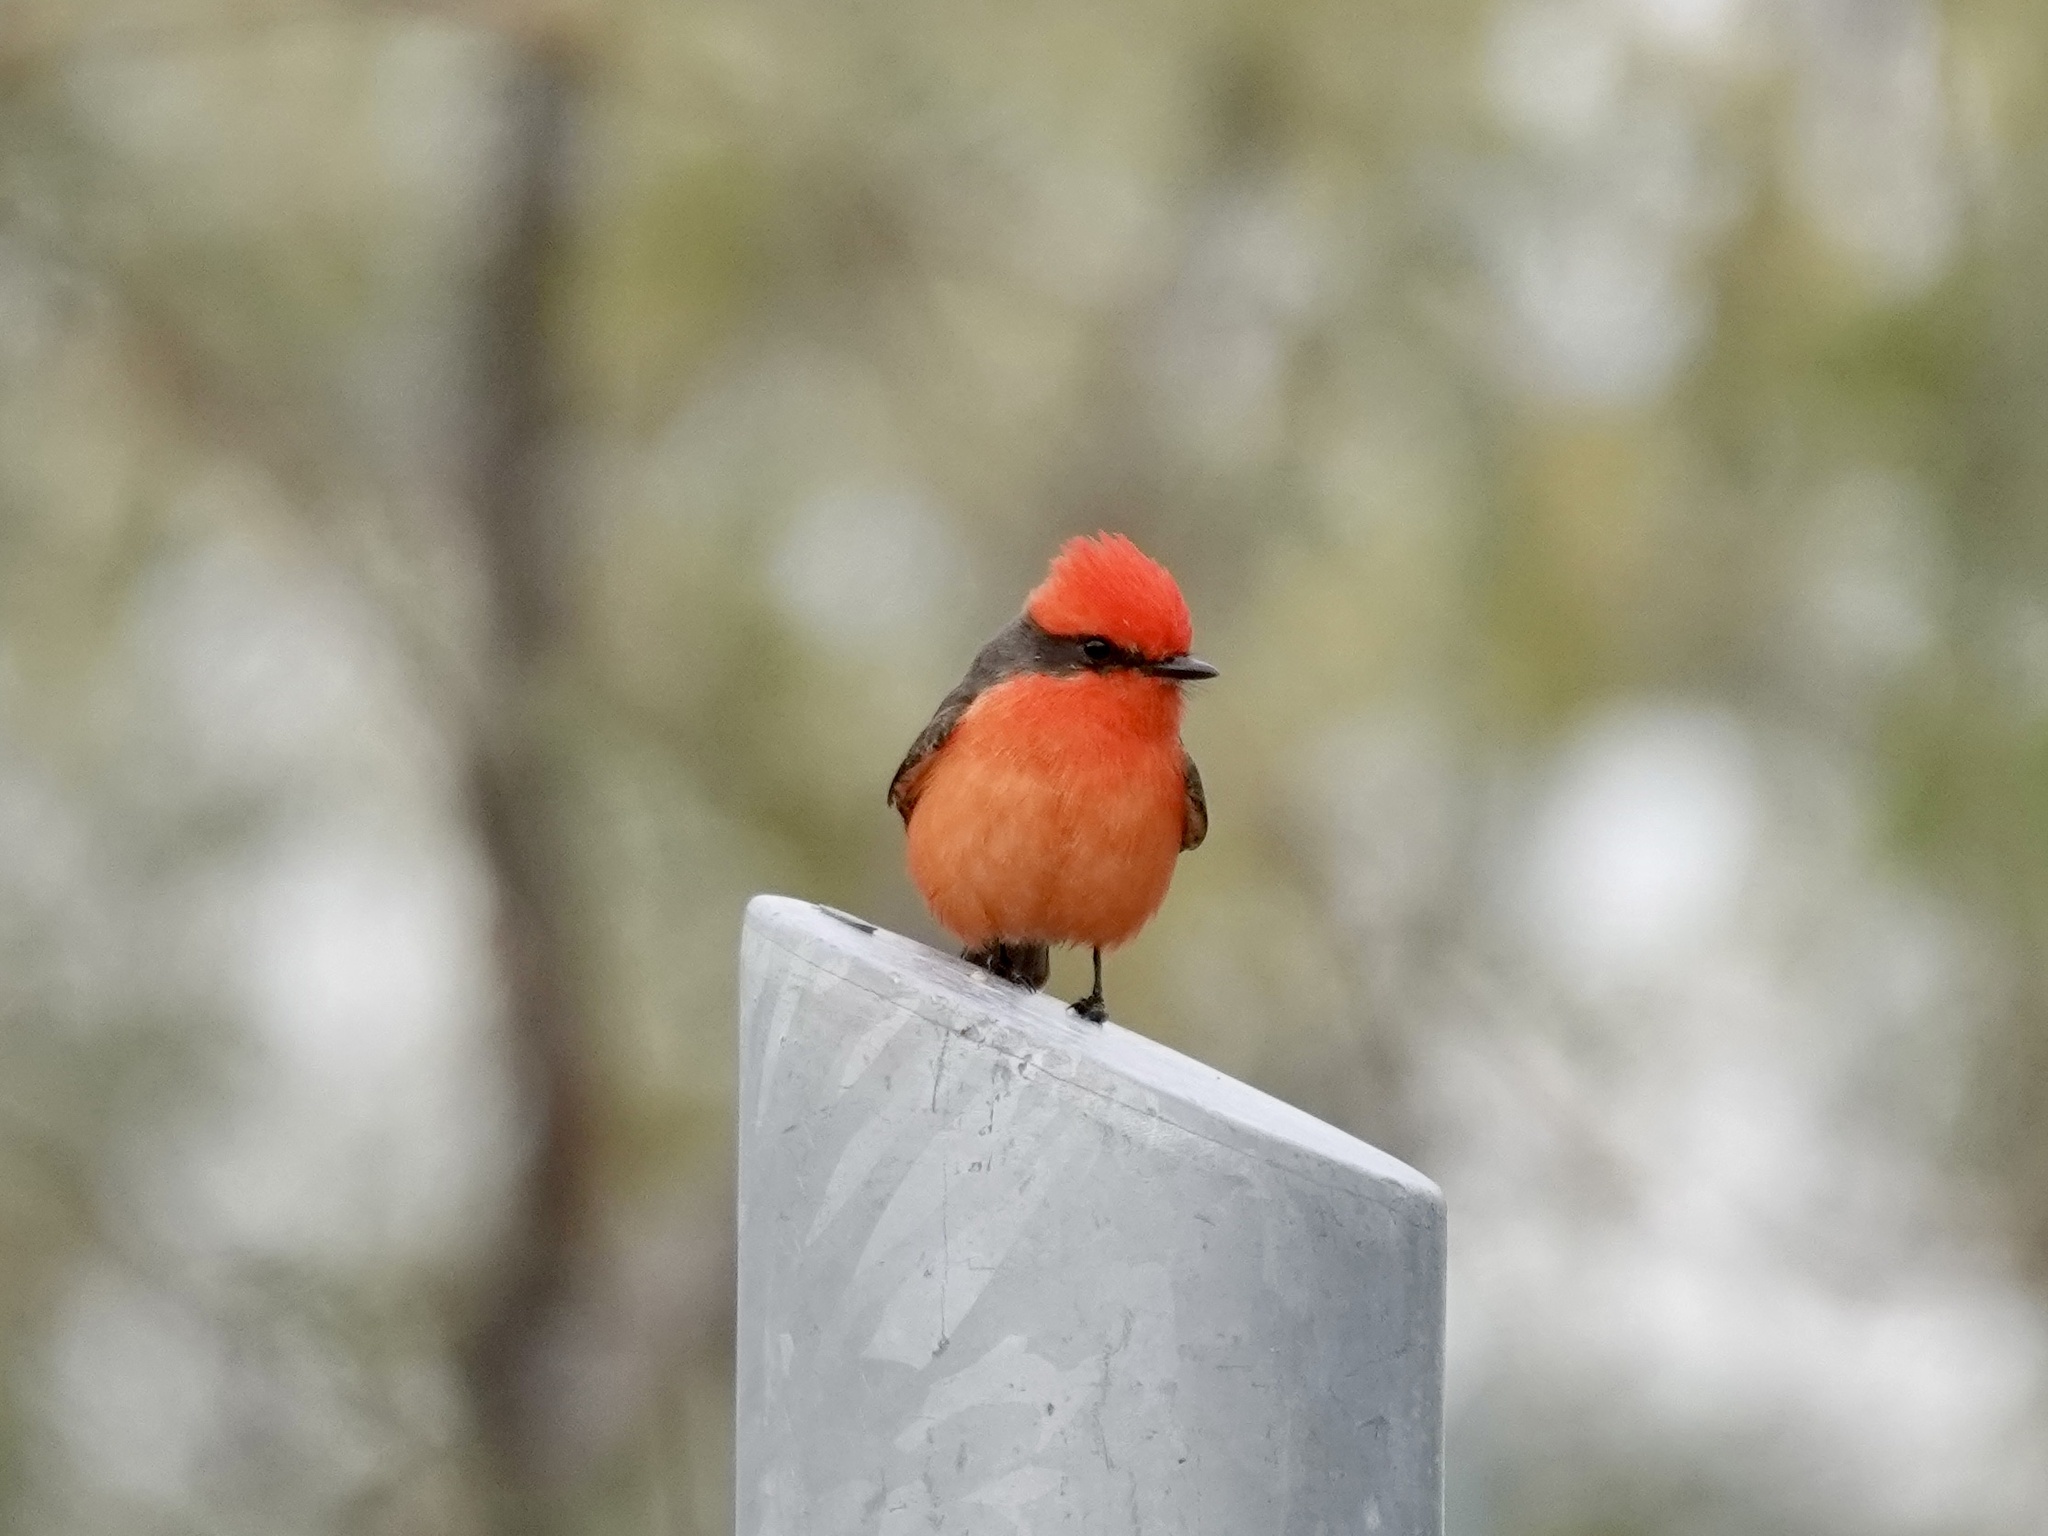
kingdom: Animalia
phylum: Chordata
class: Aves
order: Passeriformes
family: Tyrannidae
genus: Pyrocephalus
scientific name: Pyrocephalus rubinus
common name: Vermilion flycatcher
